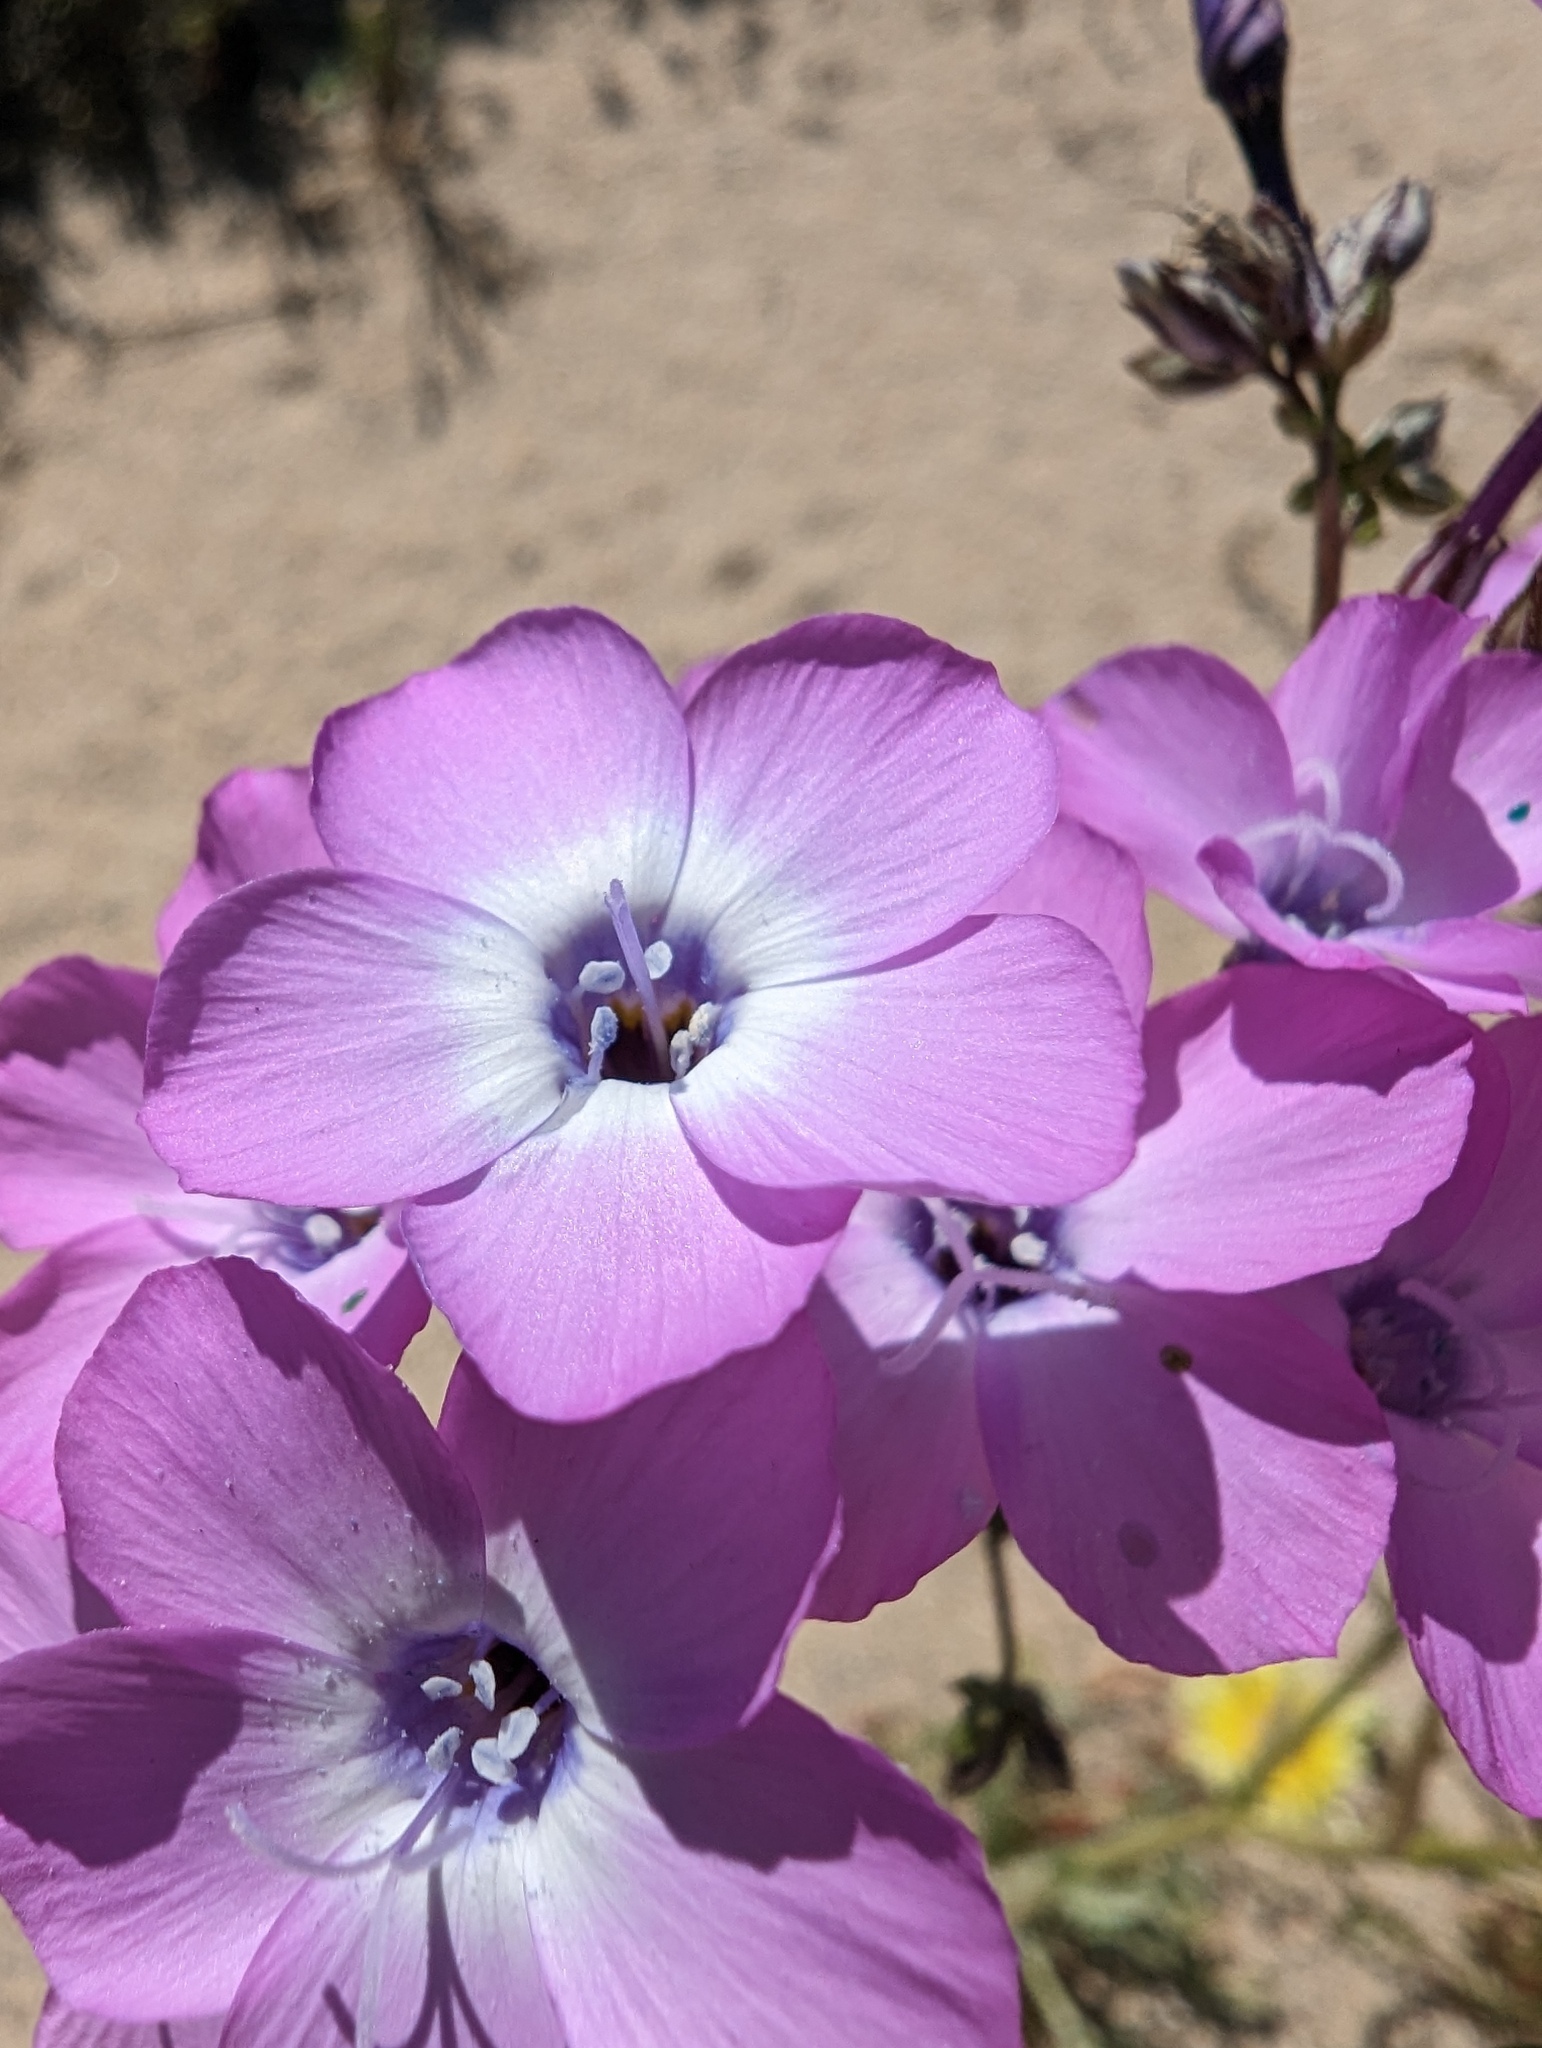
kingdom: Plantae
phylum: Tracheophyta
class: Magnoliopsida
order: Ericales
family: Polemoniaceae
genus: Gilia
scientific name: Gilia cana
